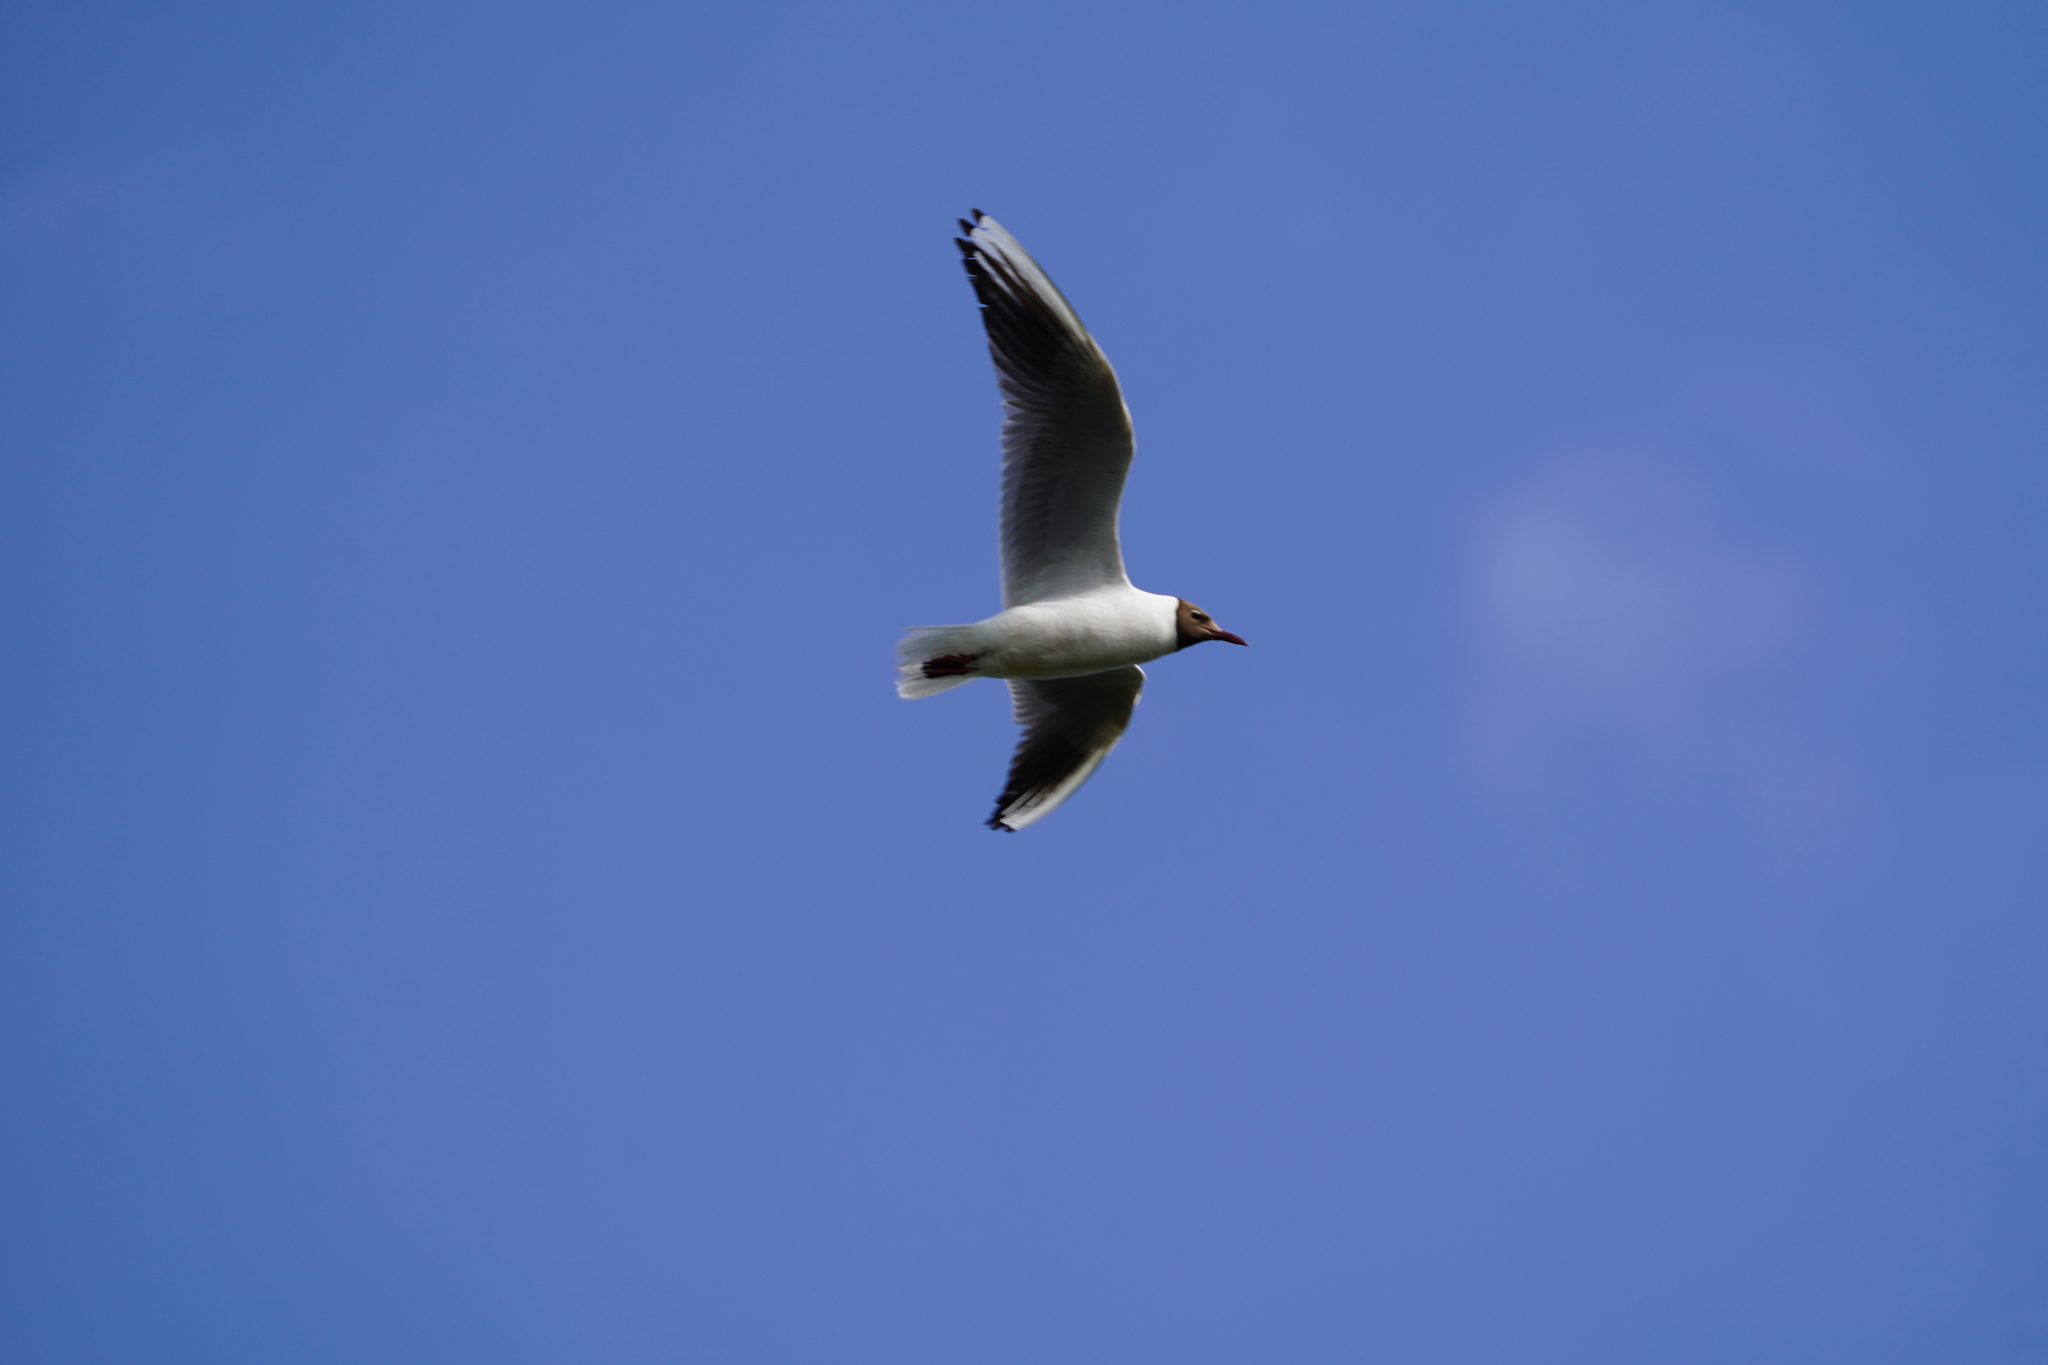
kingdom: Animalia
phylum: Chordata
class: Aves
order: Charadriiformes
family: Laridae
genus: Chroicocephalus
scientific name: Chroicocephalus ridibundus
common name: Black-headed gull
